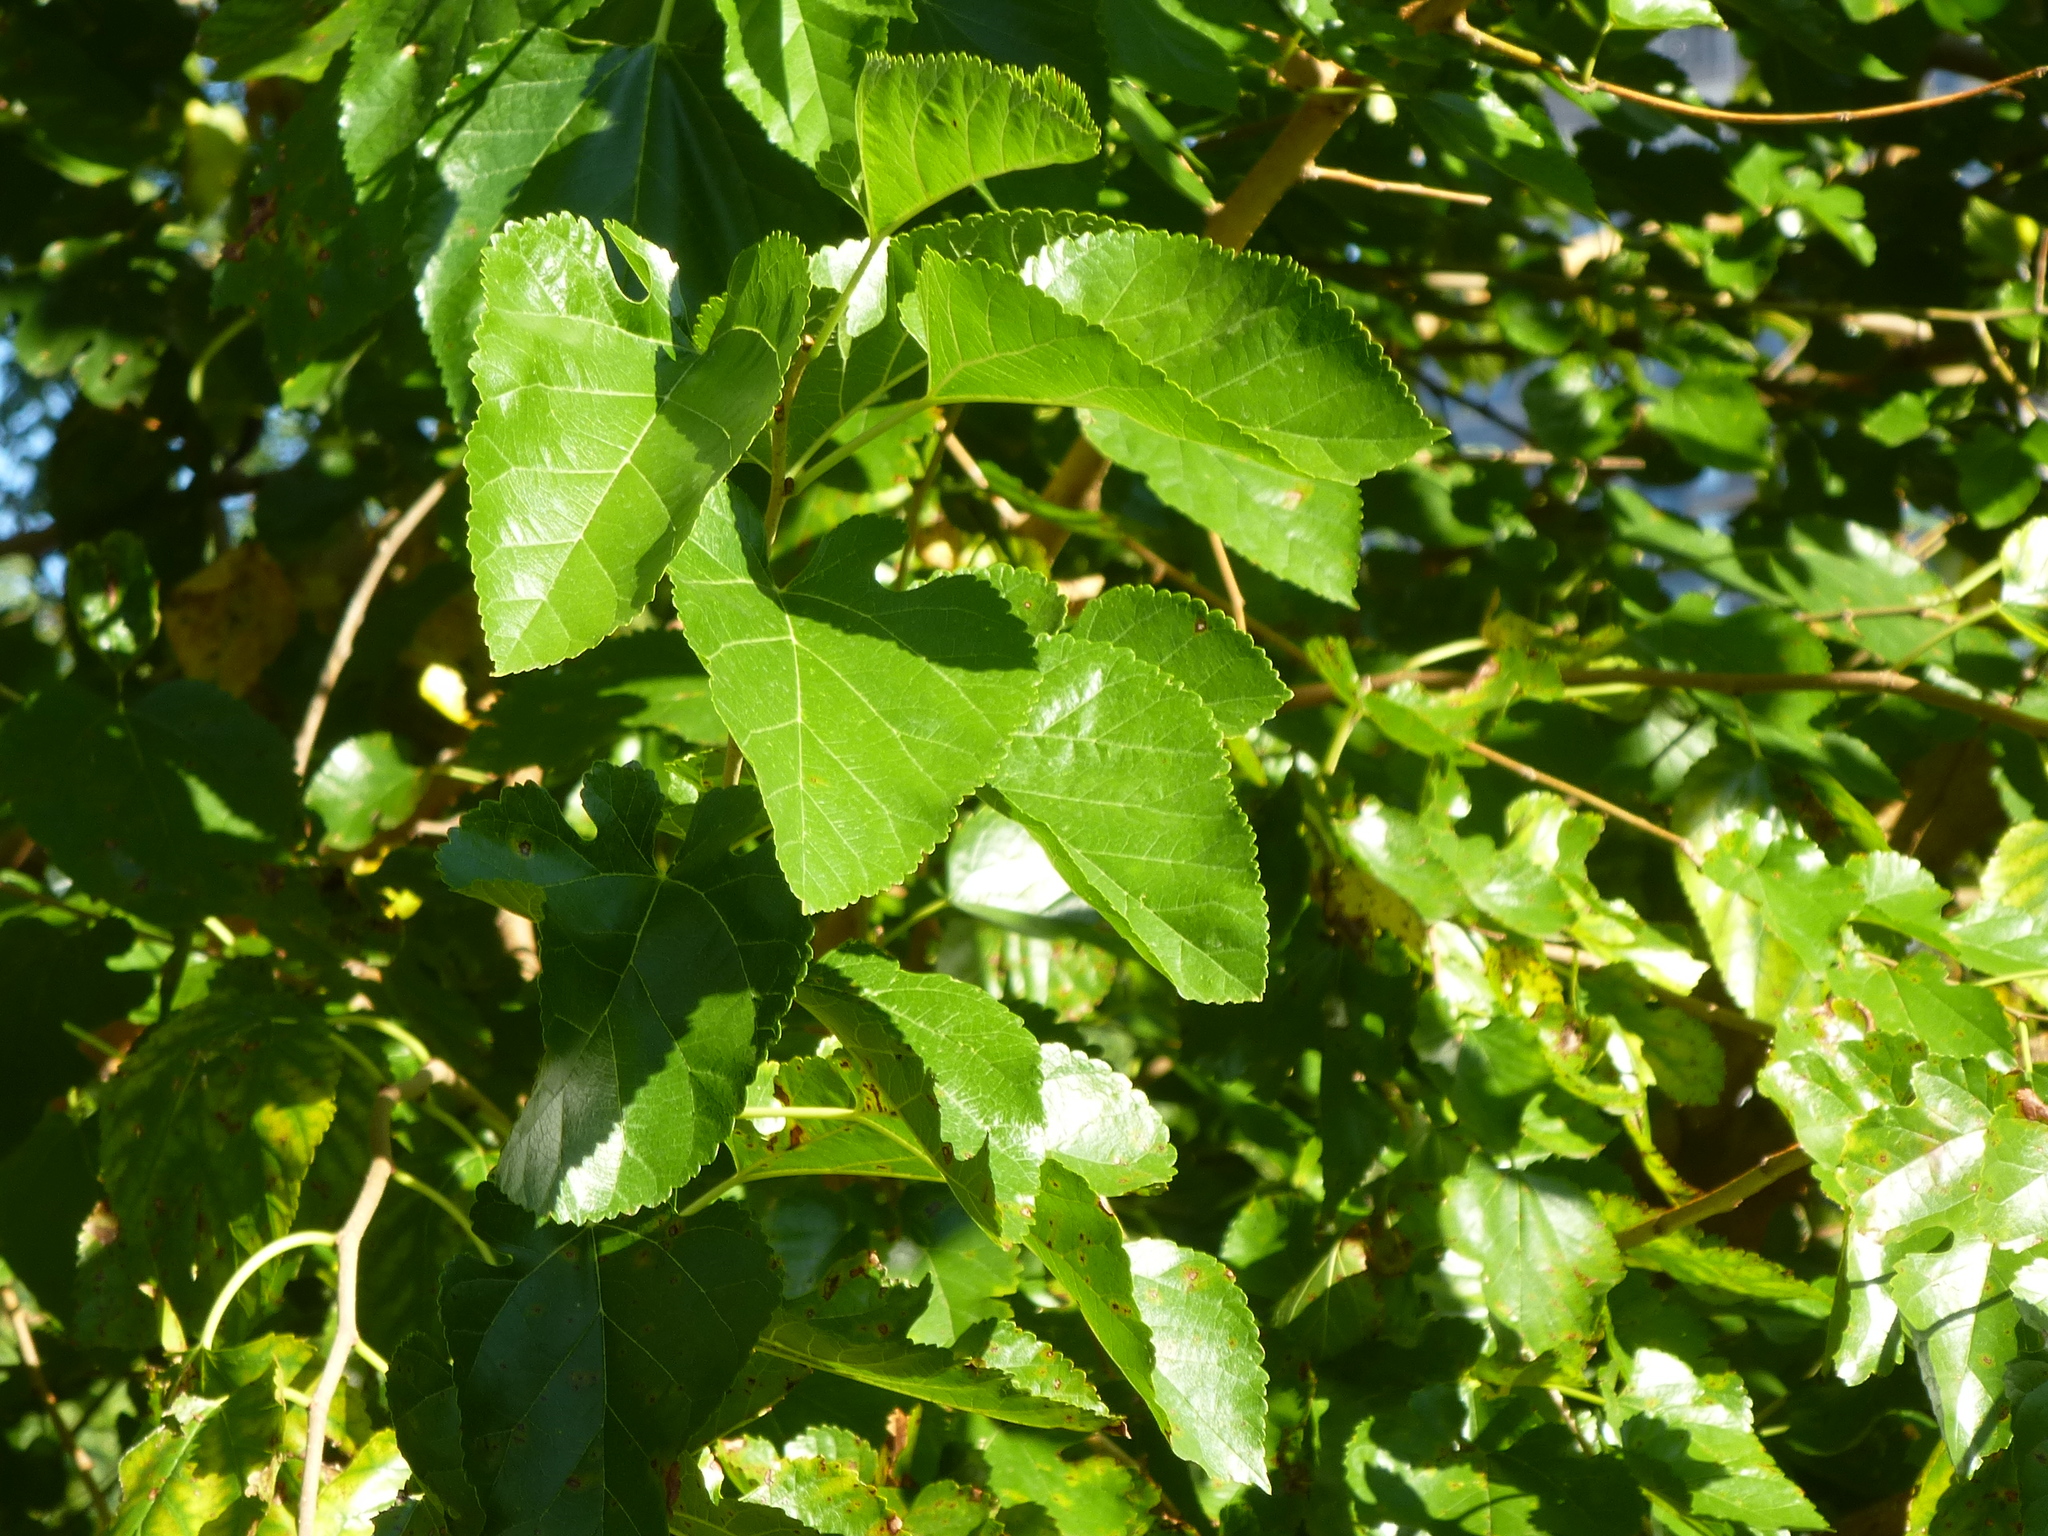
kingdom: Plantae
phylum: Tracheophyta
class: Magnoliopsida
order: Rosales
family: Moraceae
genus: Morus
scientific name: Morus alba
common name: White mulberry
